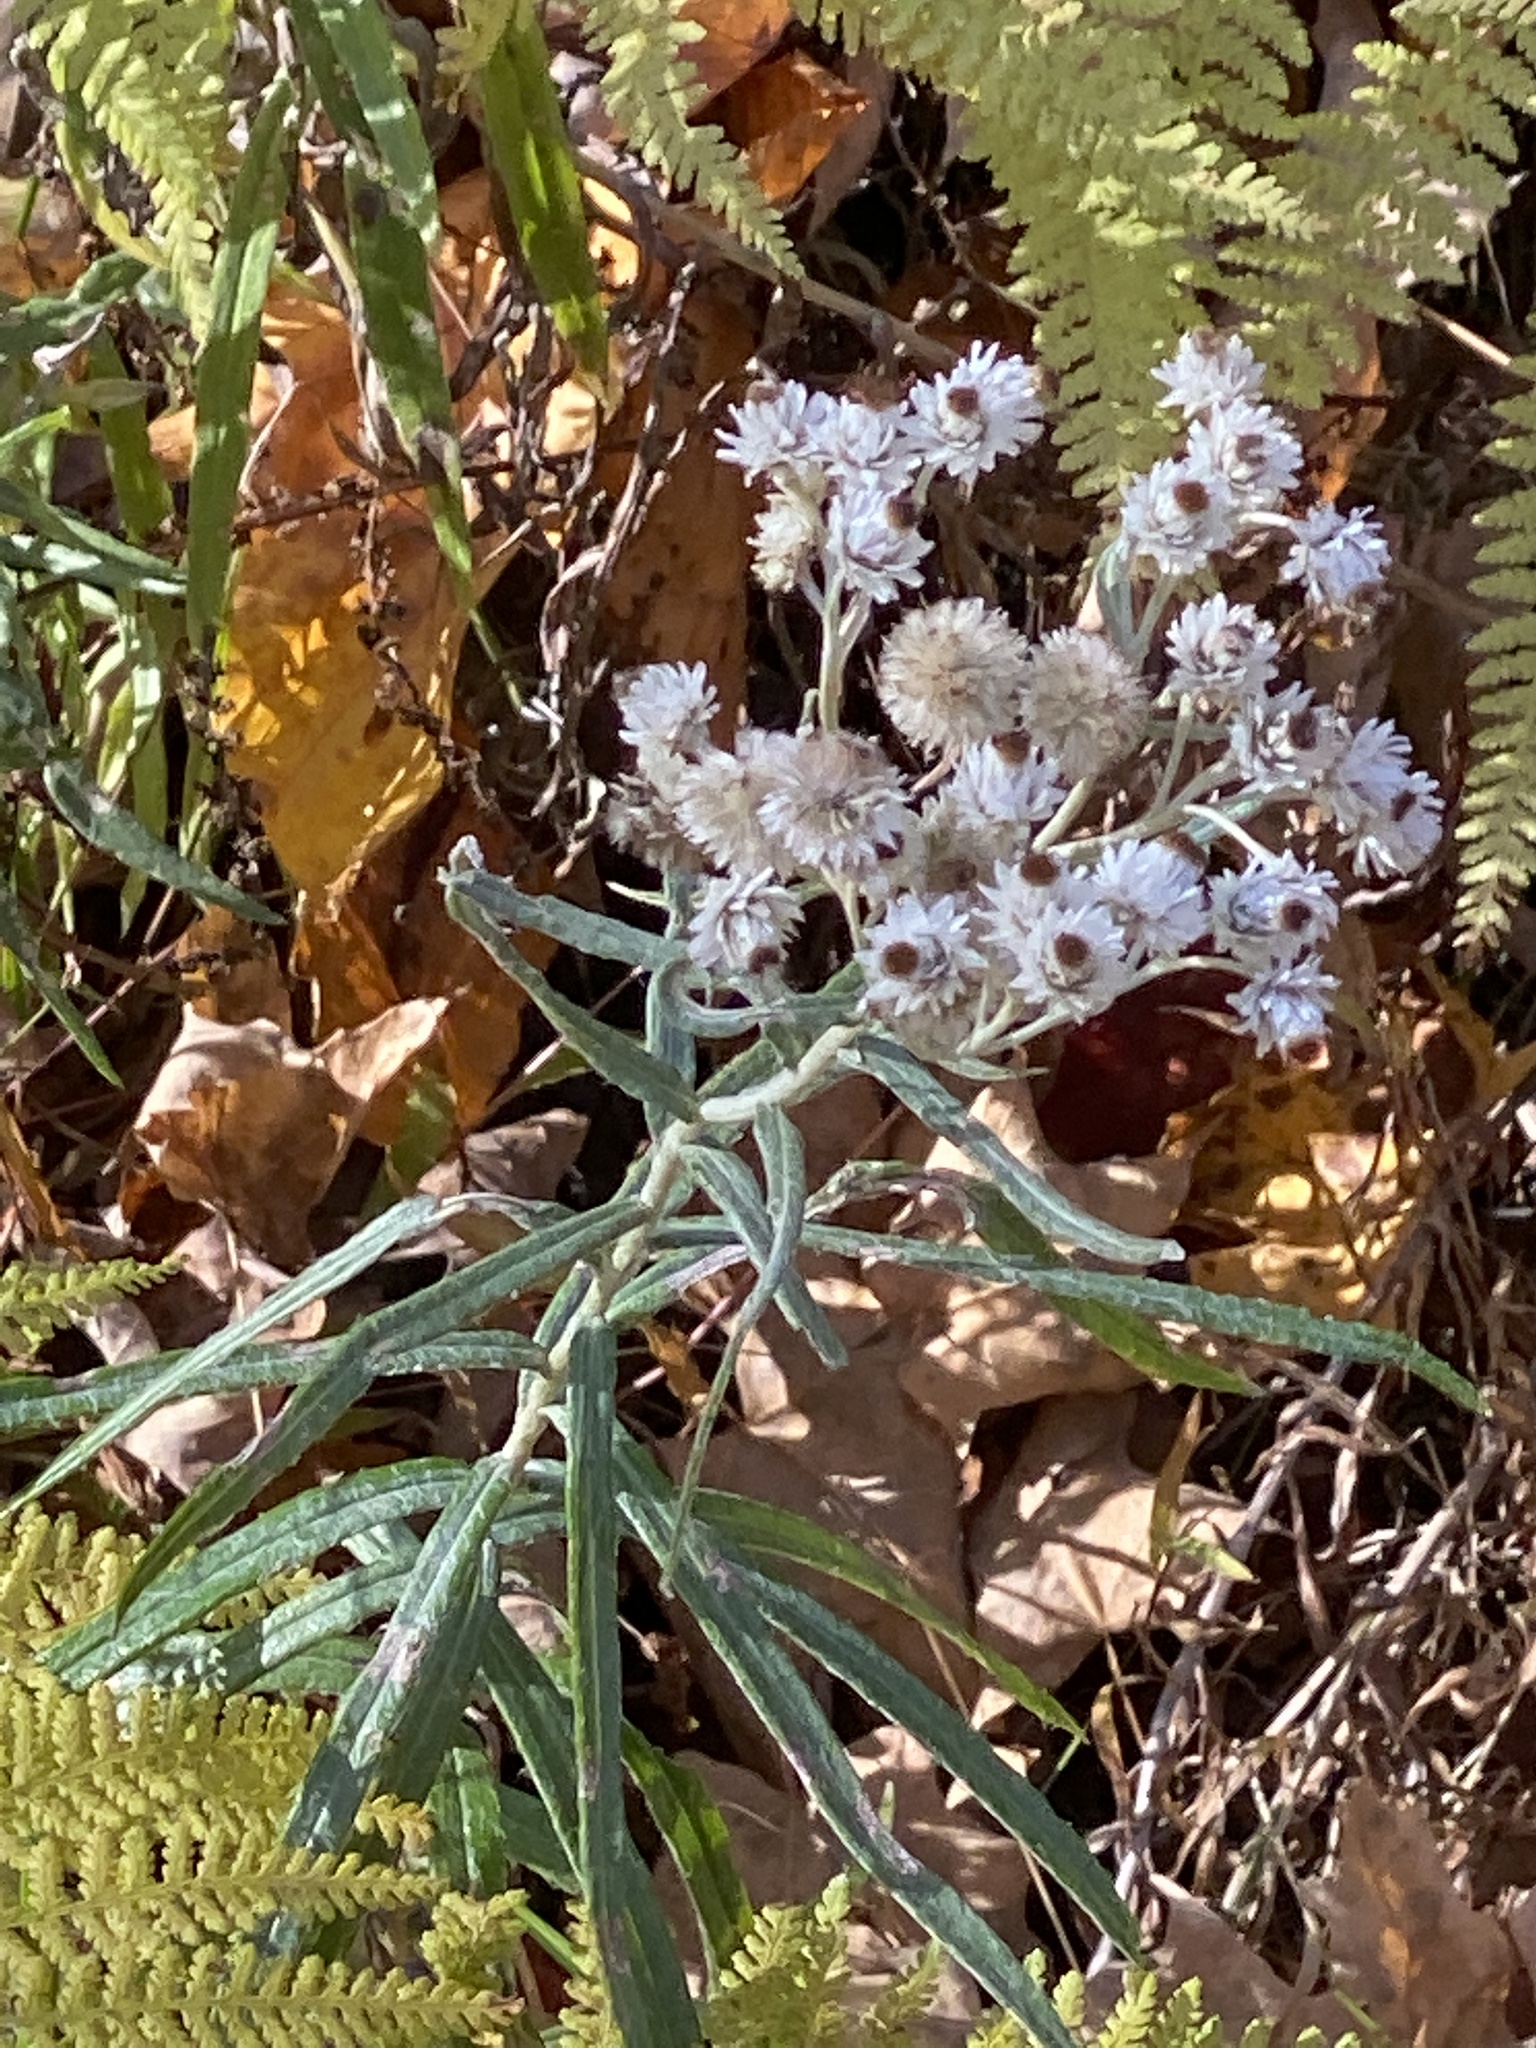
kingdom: Plantae
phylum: Tracheophyta
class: Magnoliopsida
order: Asterales
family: Asteraceae
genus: Anaphalis
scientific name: Anaphalis margaritacea
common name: Pearly everlasting
